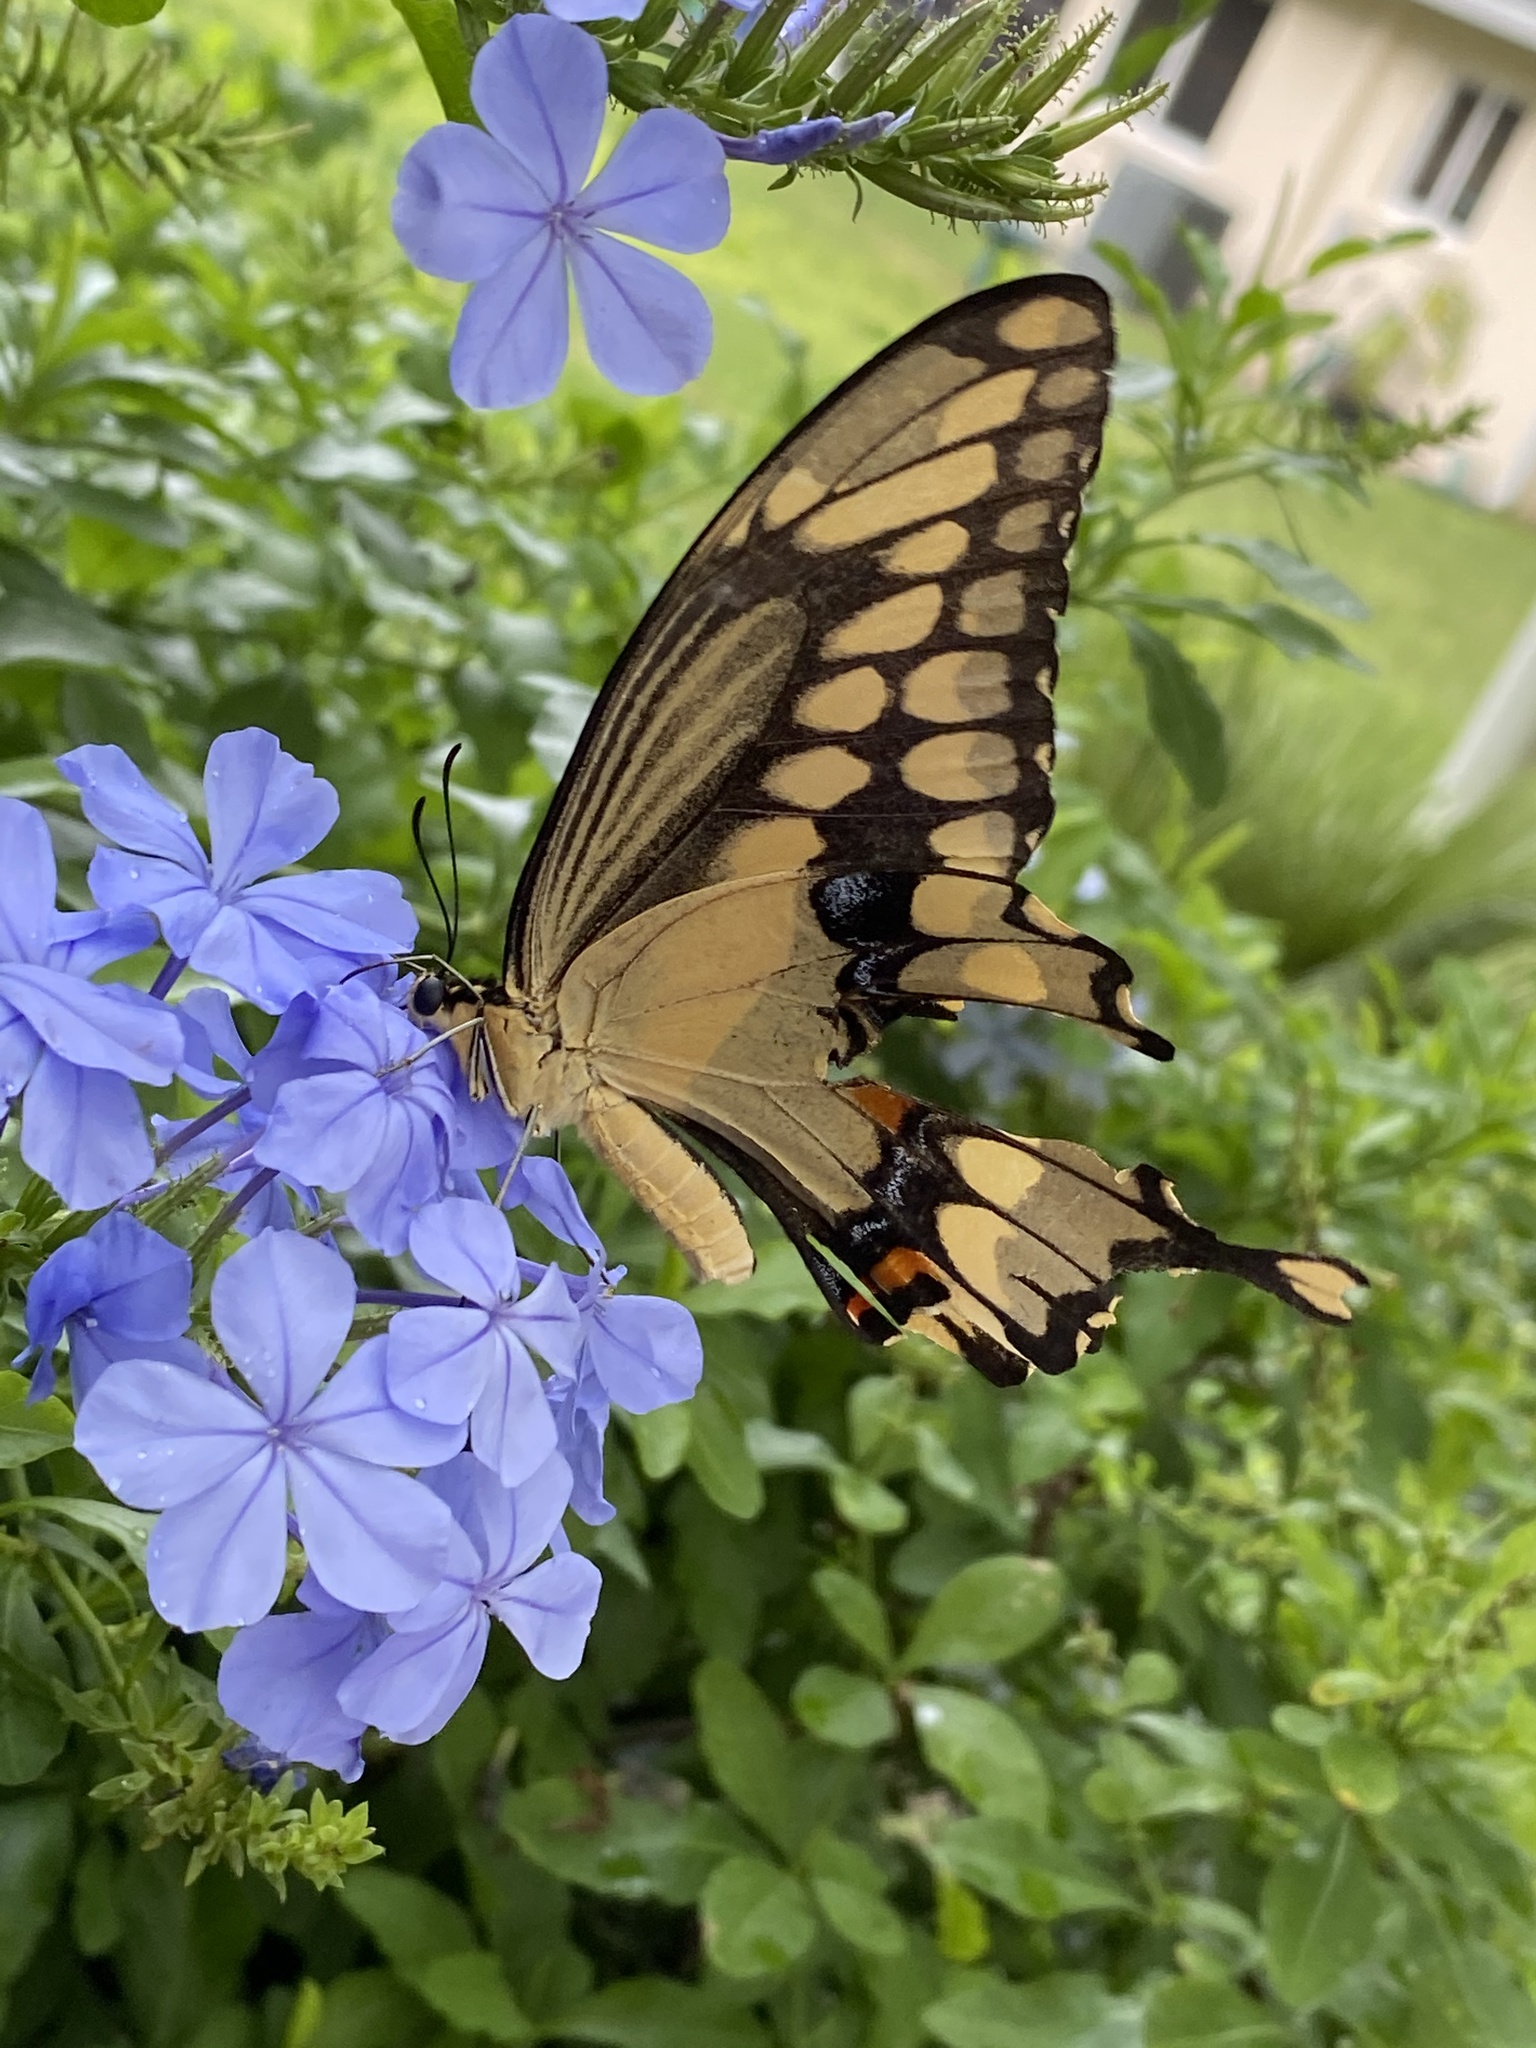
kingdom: Animalia
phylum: Arthropoda
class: Insecta
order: Lepidoptera
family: Papilionidae
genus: Papilio
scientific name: Papilio cresphontes
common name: Giant swallowtail
